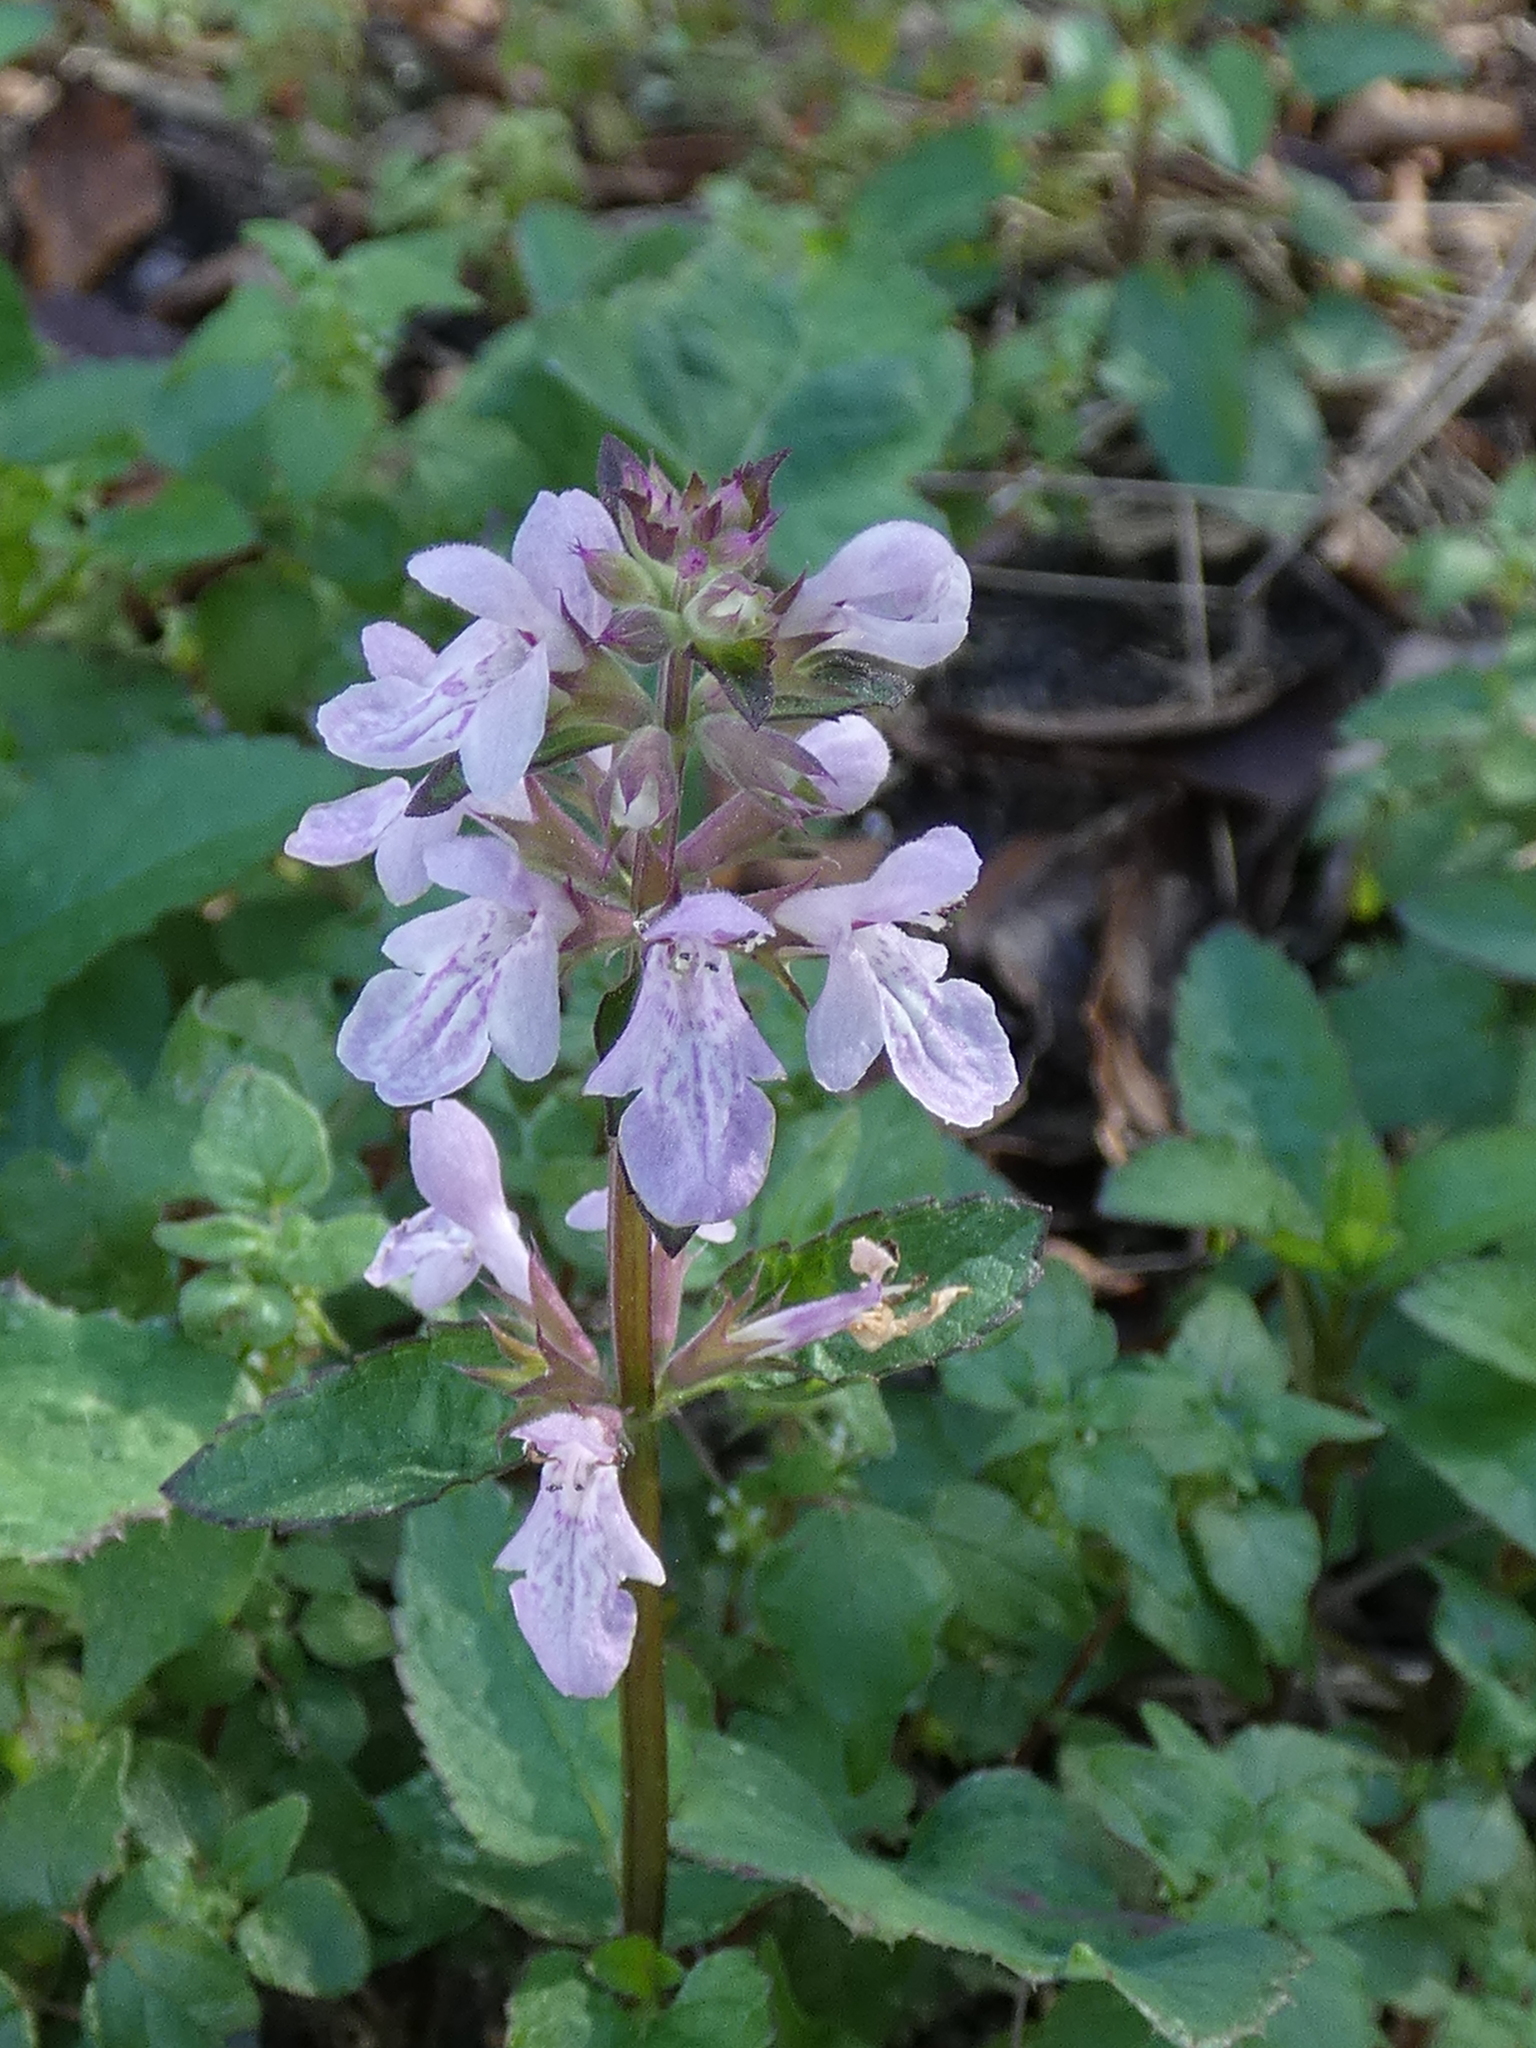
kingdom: Plantae
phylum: Tracheophyta
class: Magnoliopsida
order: Lamiales
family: Lamiaceae
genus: Stachys
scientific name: Stachys floridana
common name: Florida betony
